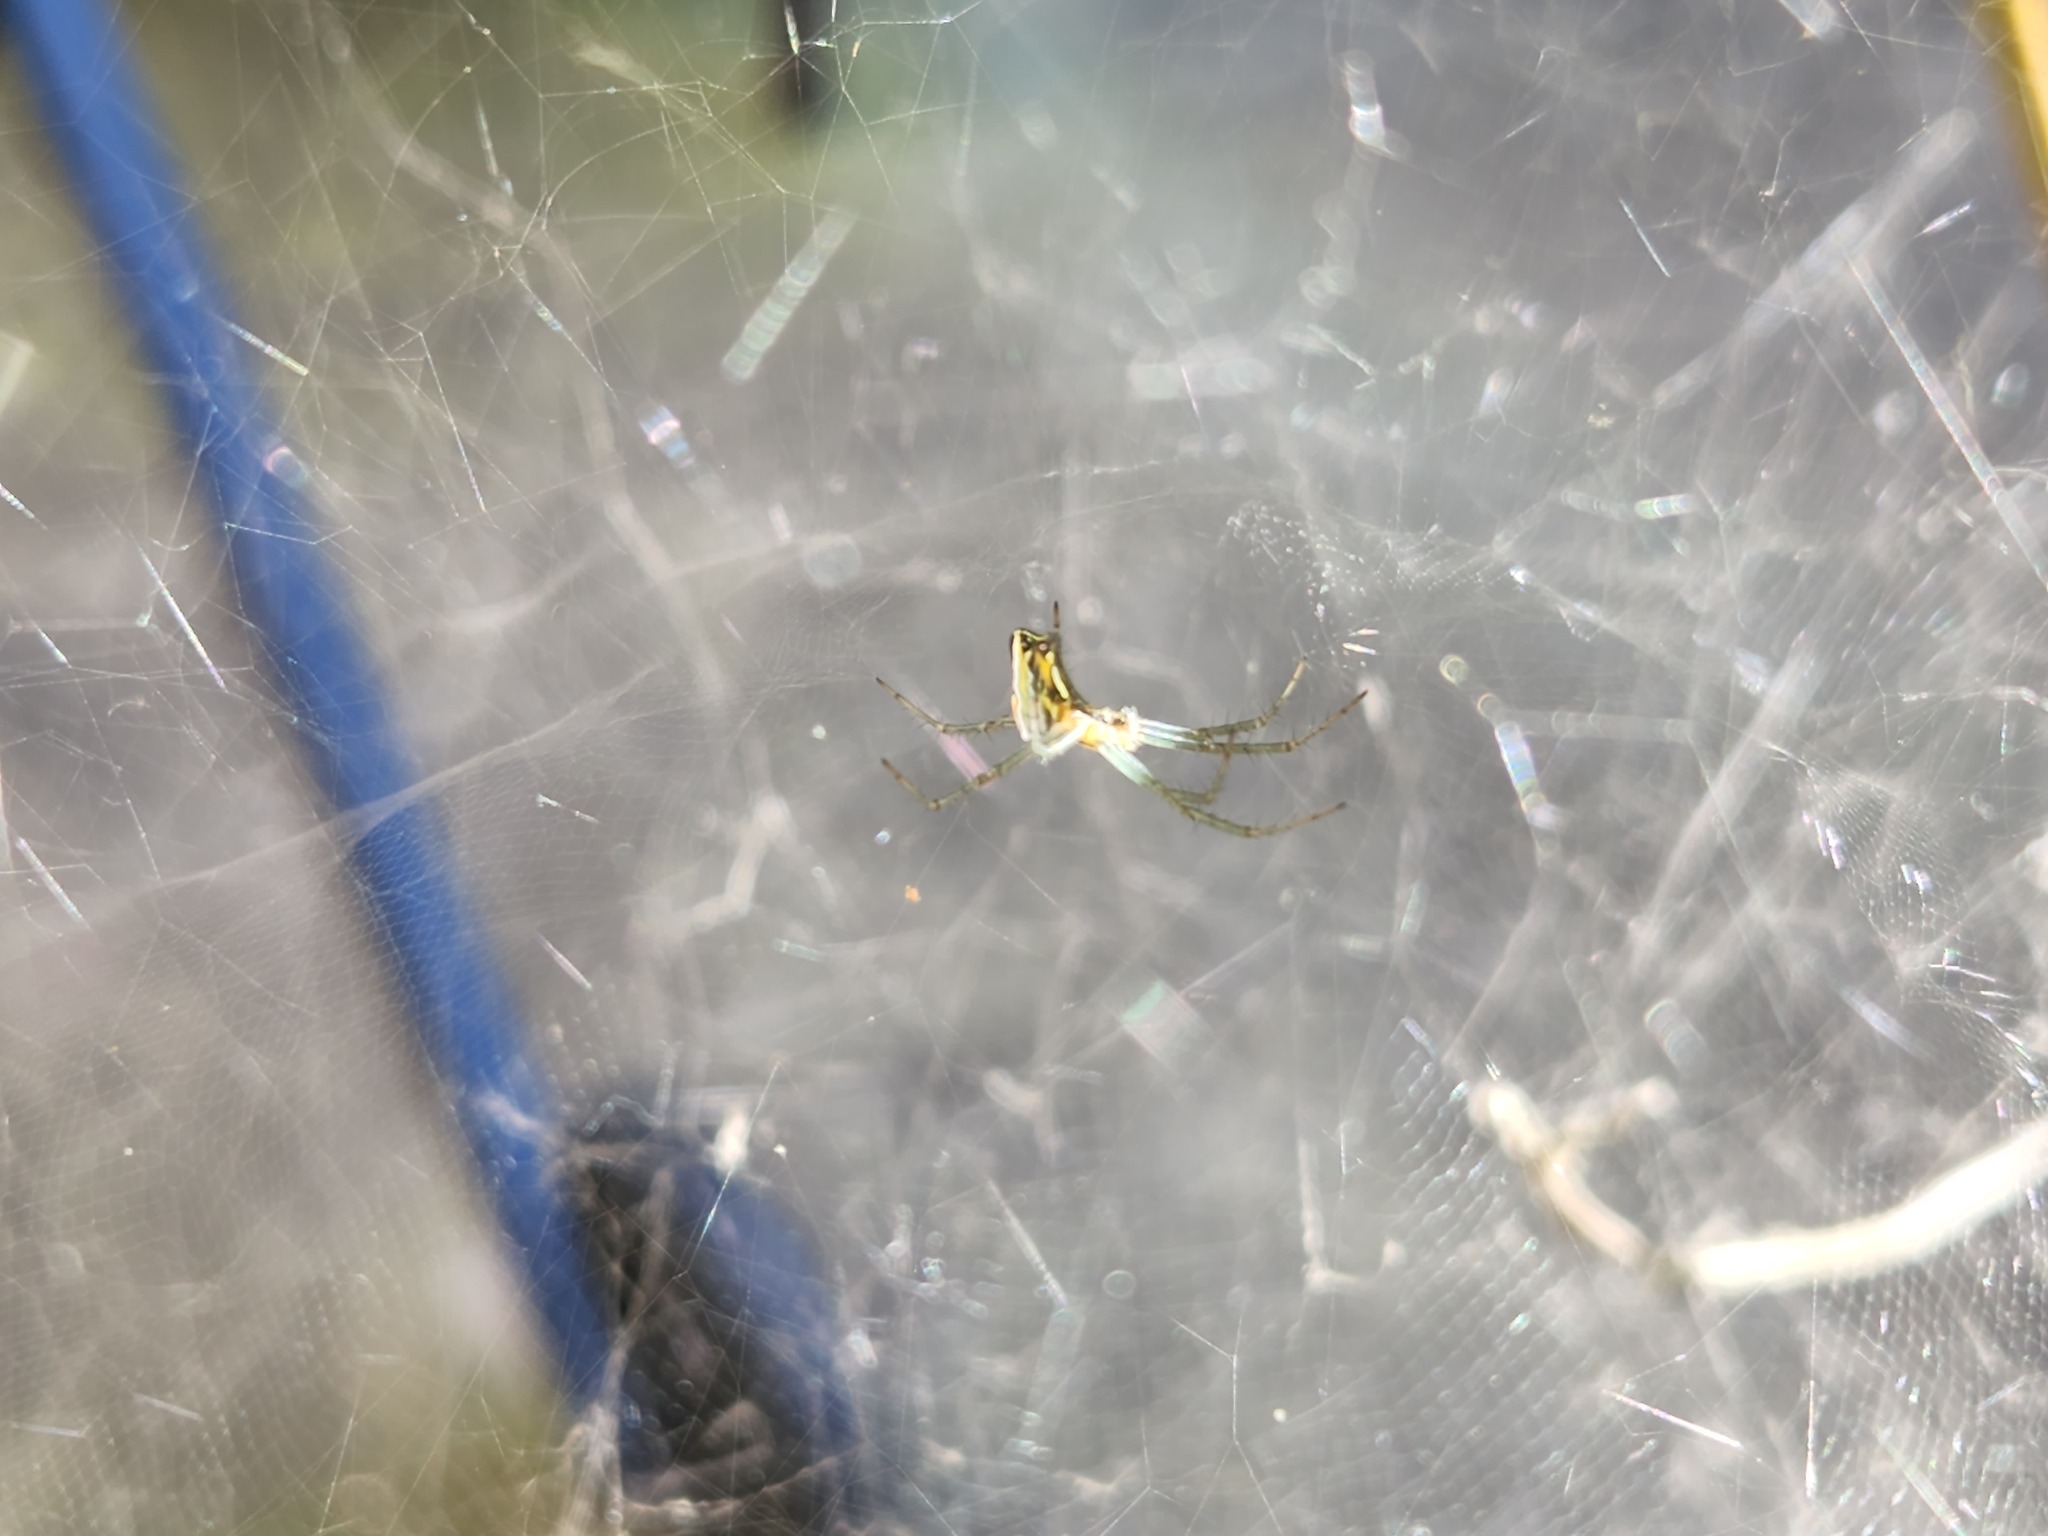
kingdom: Animalia
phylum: Arthropoda
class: Arachnida
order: Araneae
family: Araneidae
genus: Mecynogea
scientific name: Mecynogea lemniscata
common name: Orb weavers
